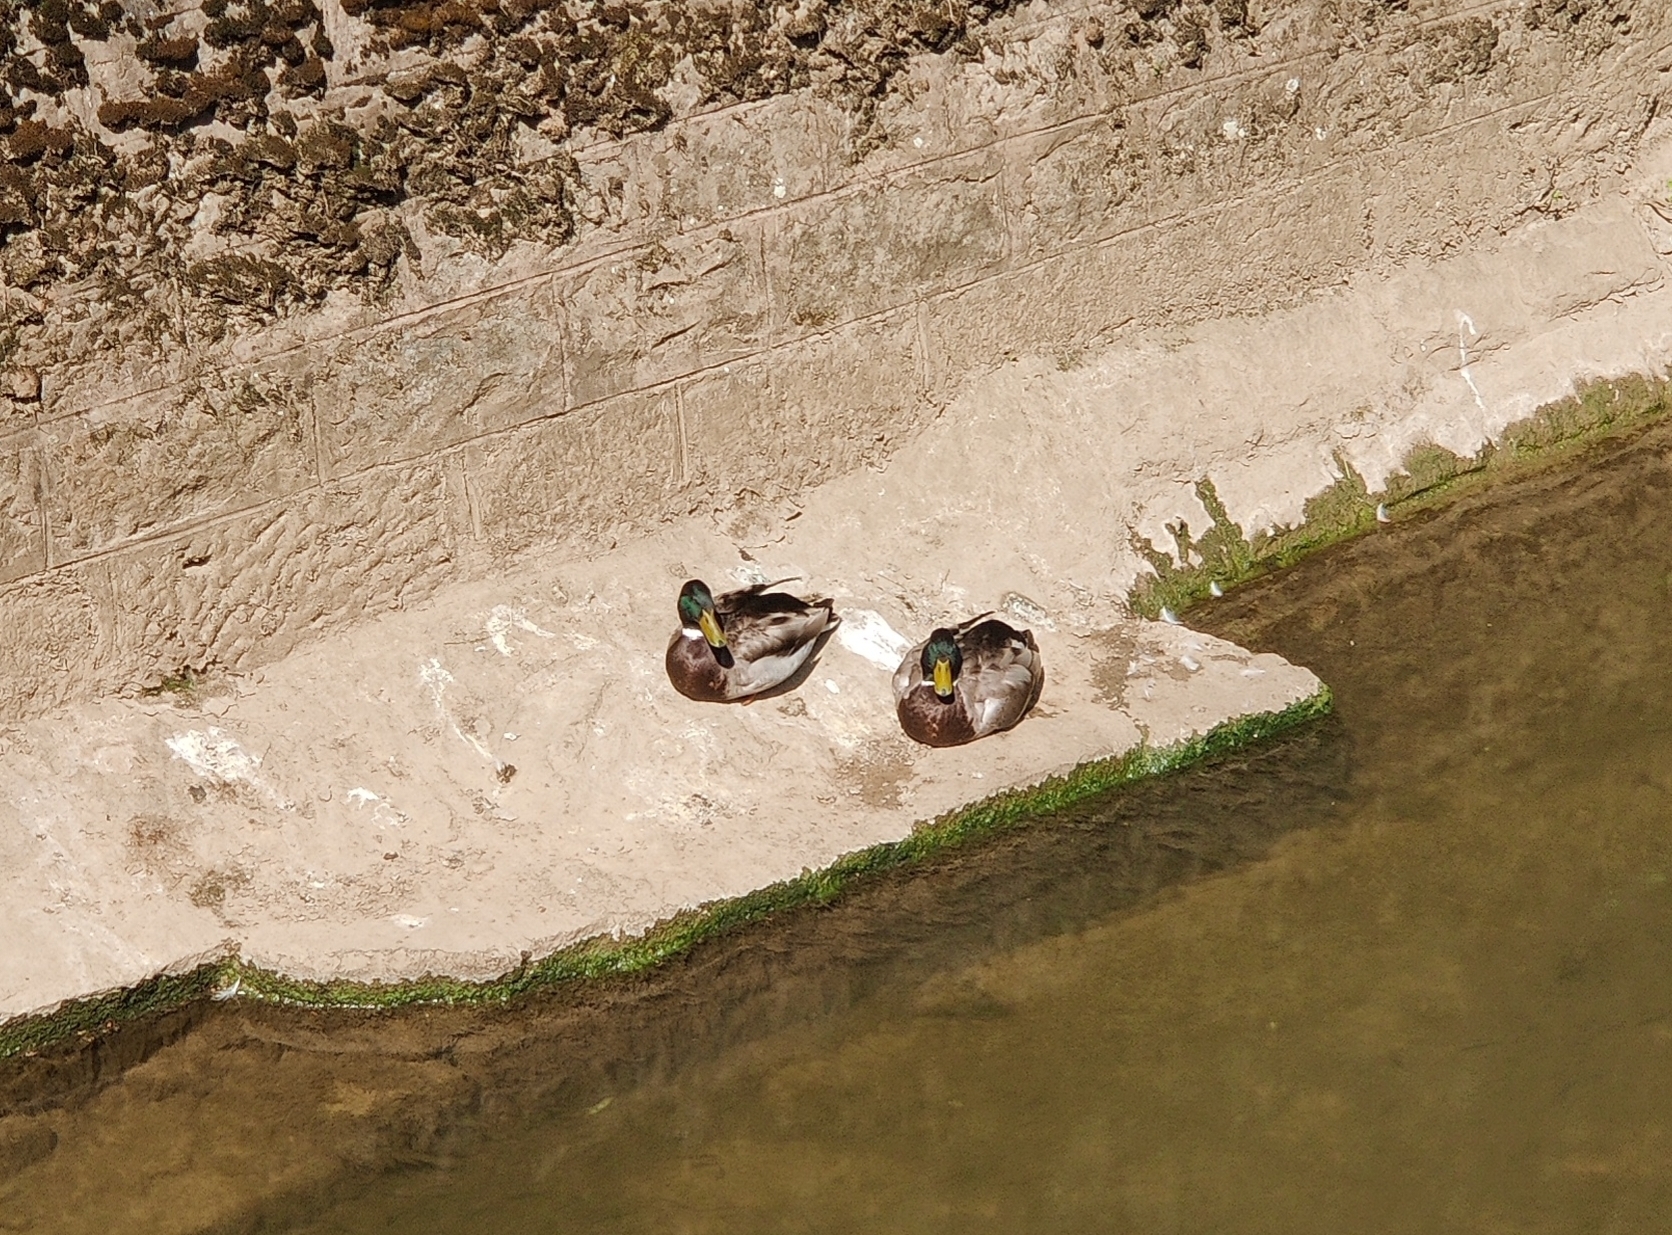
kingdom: Animalia
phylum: Chordata
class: Aves
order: Anseriformes
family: Anatidae
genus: Anas
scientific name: Anas platyrhynchos
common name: Mallard
